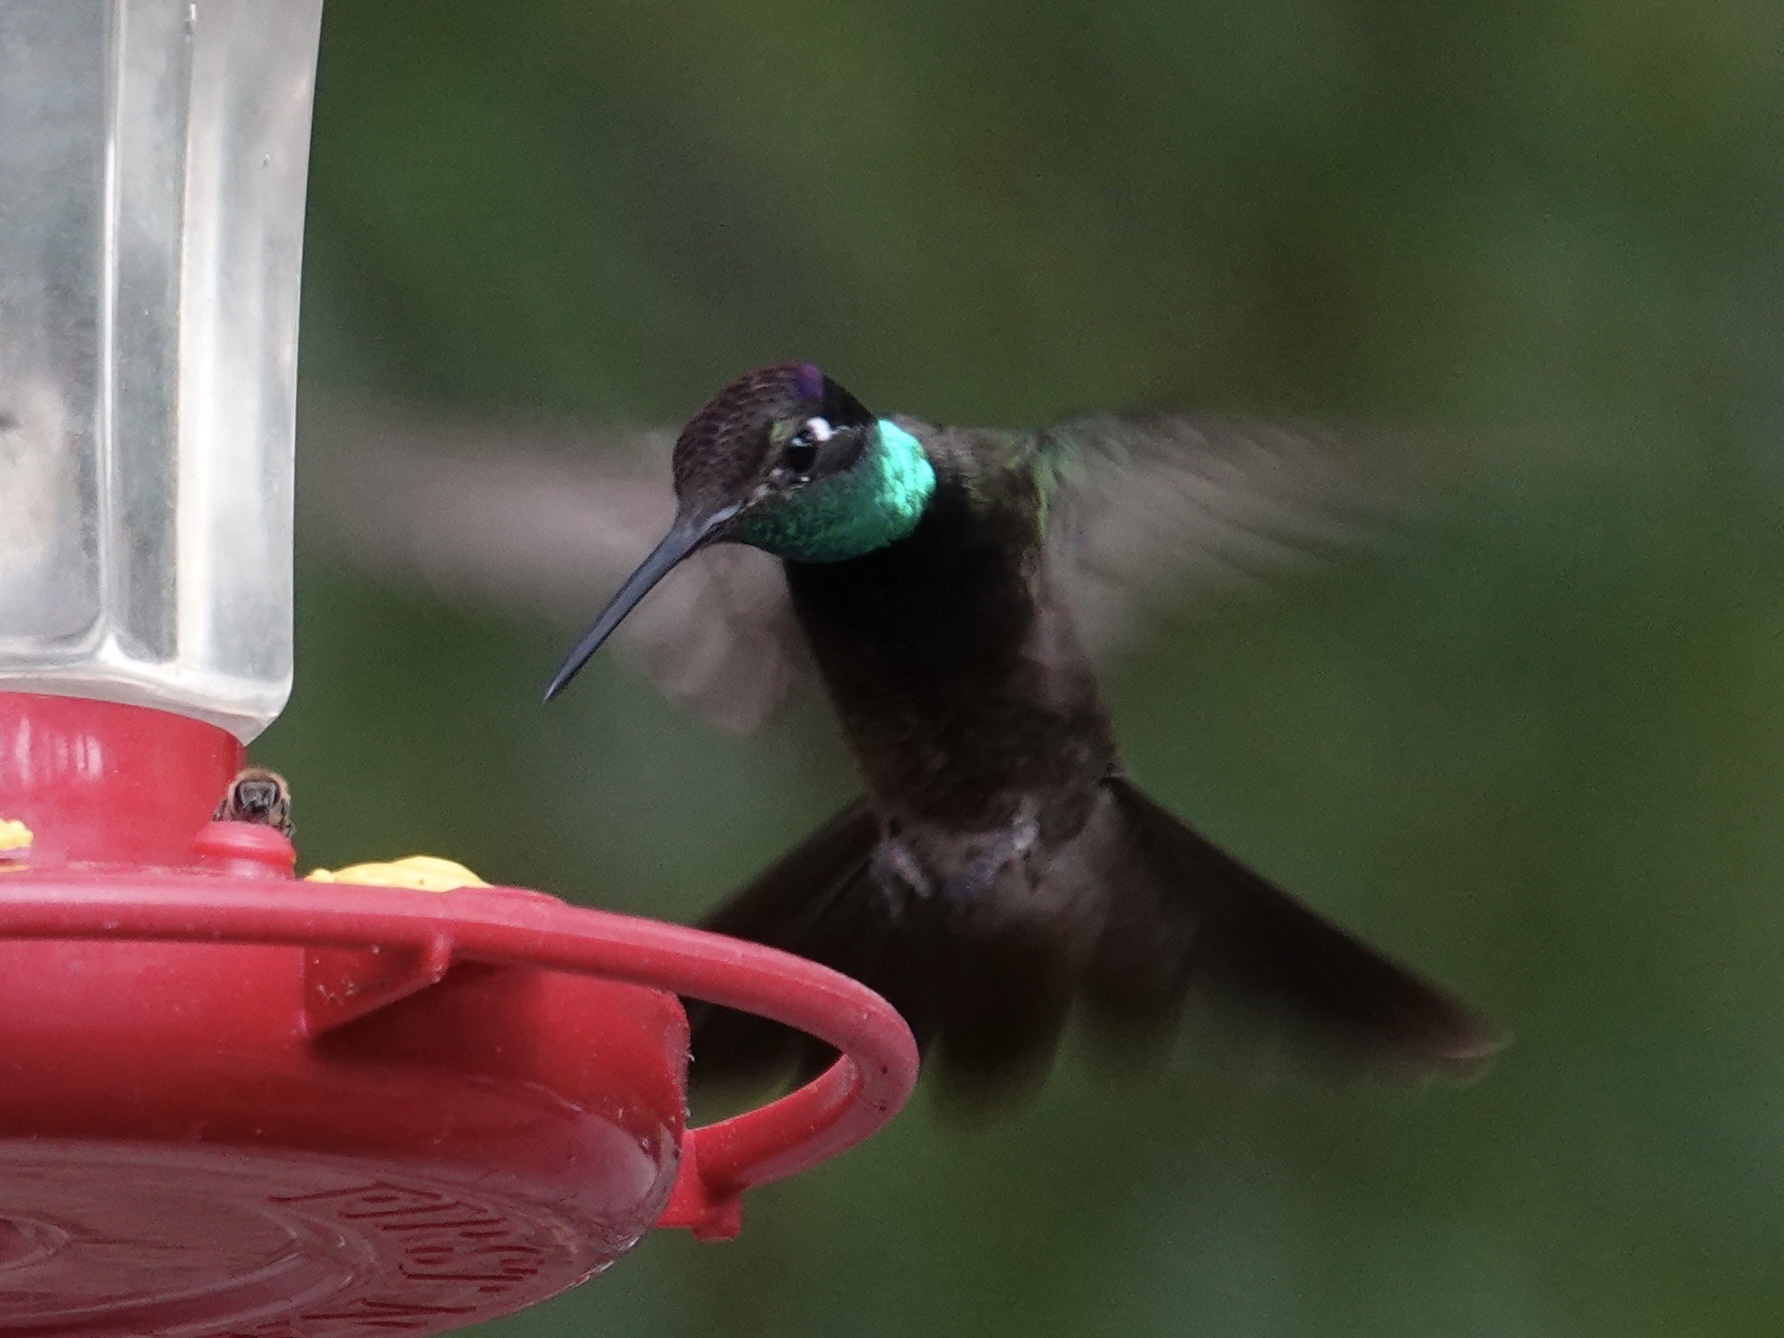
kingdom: Animalia
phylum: Chordata
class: Aves
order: Apodiformes
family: Trochilidae
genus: Eugenes
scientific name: Eugenes fulgens
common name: Magnificent hummingbird
